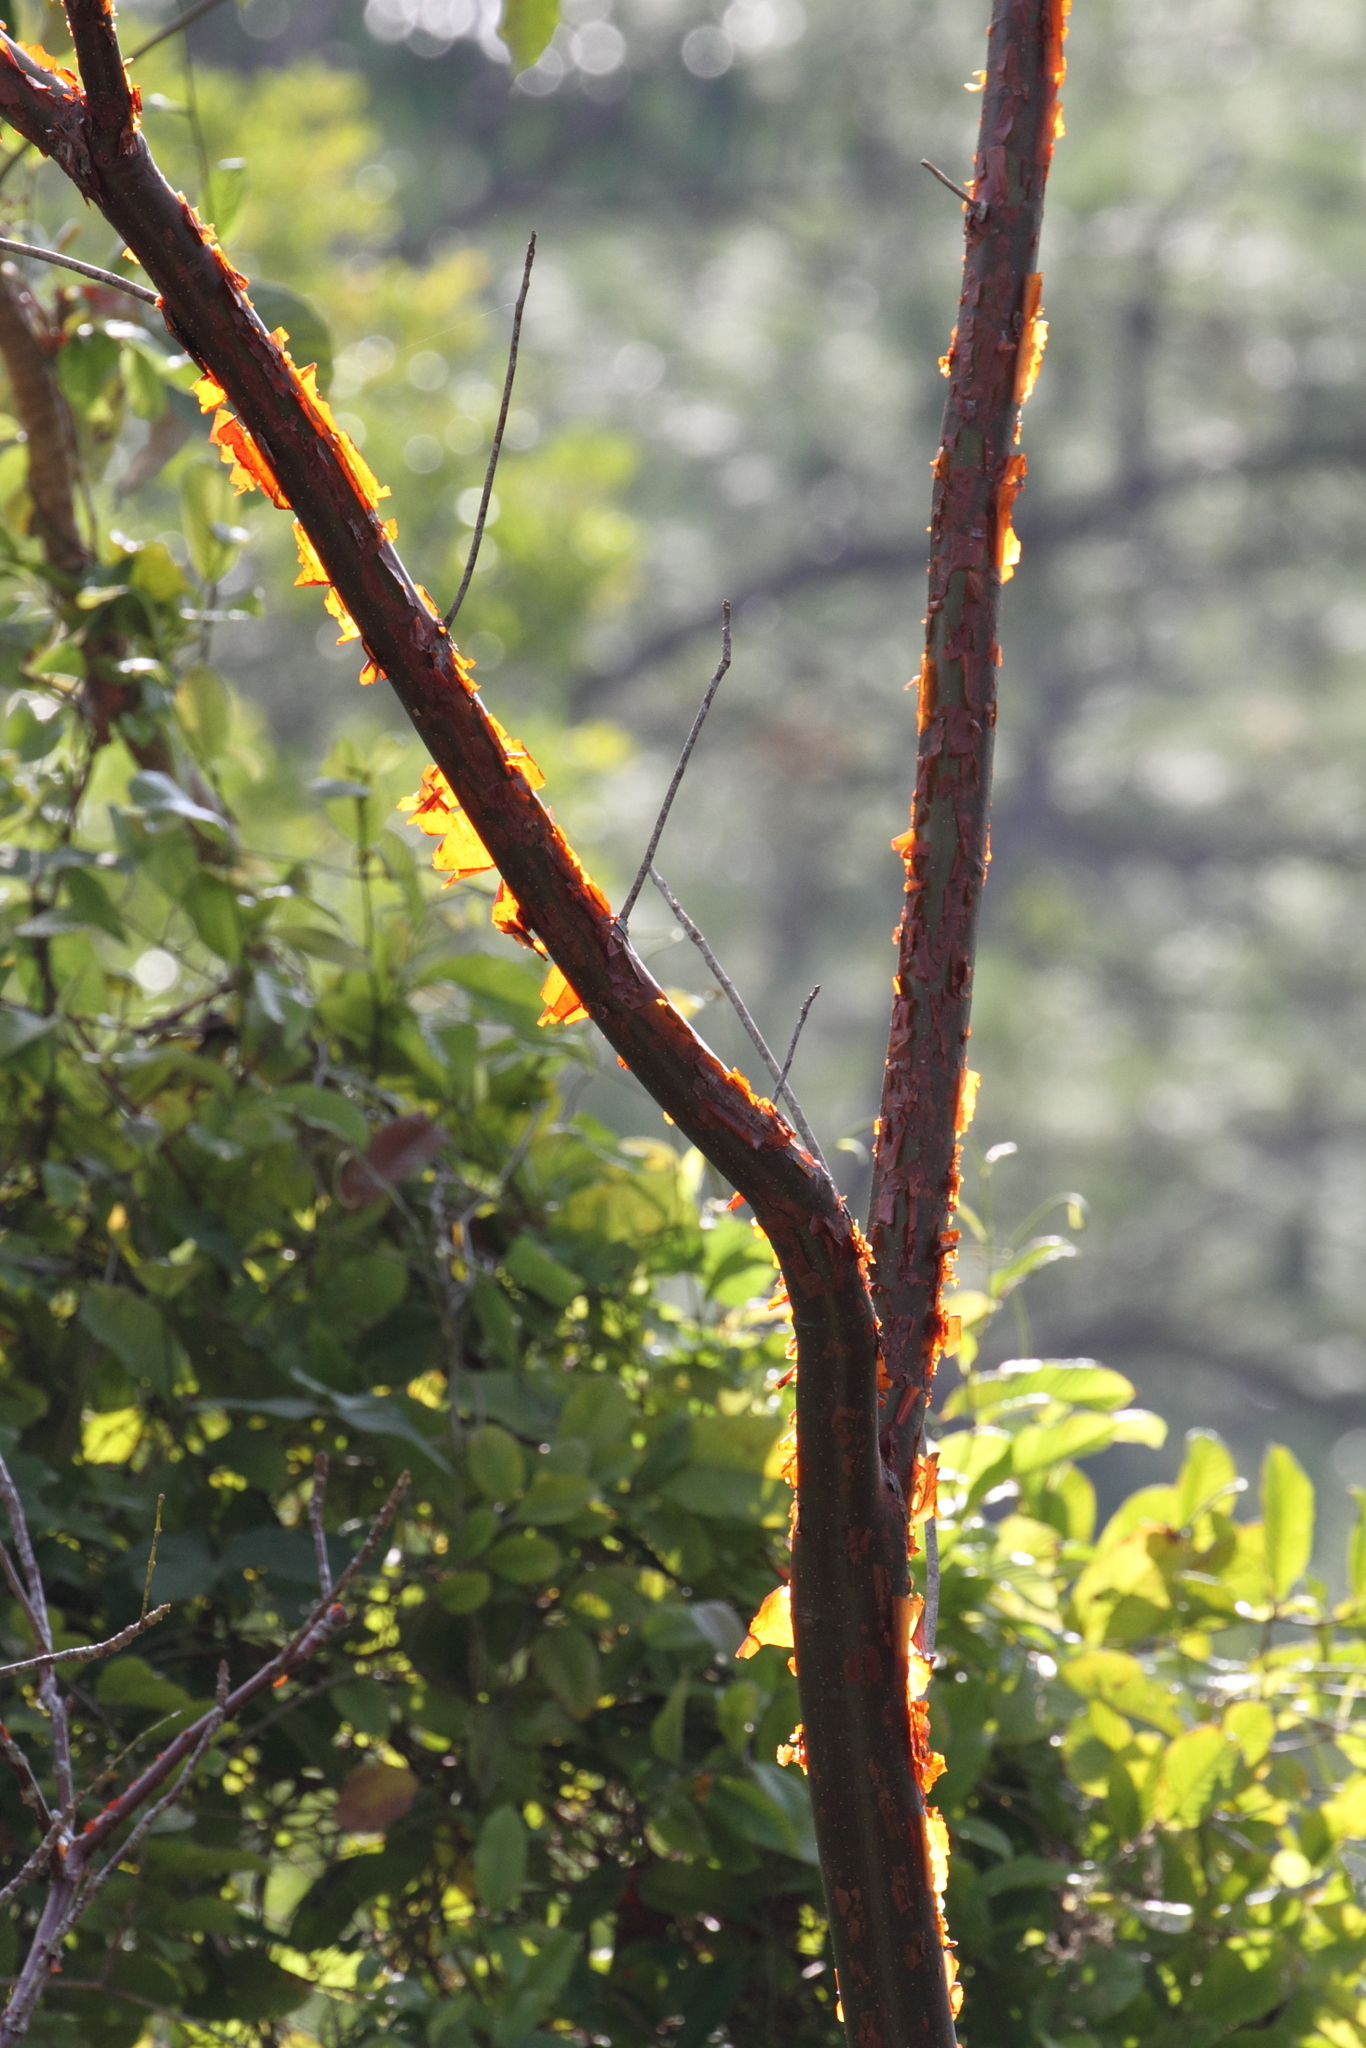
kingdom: Plantae
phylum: Tracheophyta
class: Magnoliopsida
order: Sapindales
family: Burseraceae
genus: Bursera
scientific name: Bursera simaruba
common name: Turpentine tree
